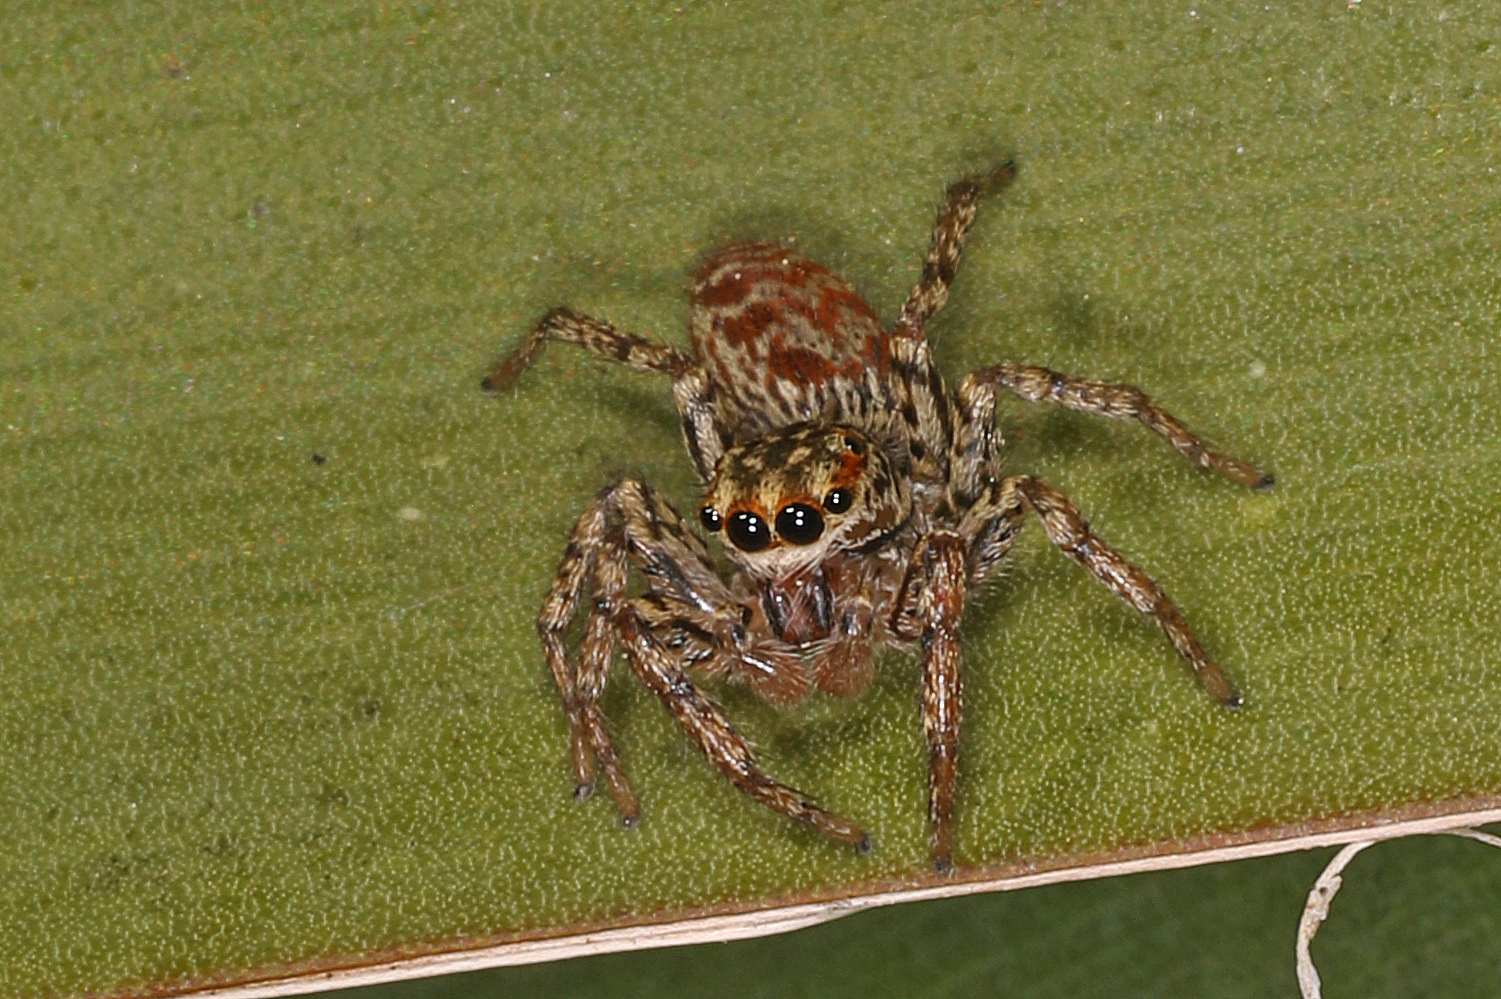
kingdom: Animalia
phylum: Arthropoda
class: Arachnida
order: Araneae
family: Salticidae
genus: Maevia
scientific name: Maevia inclemens
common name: Dimorphic jumper
